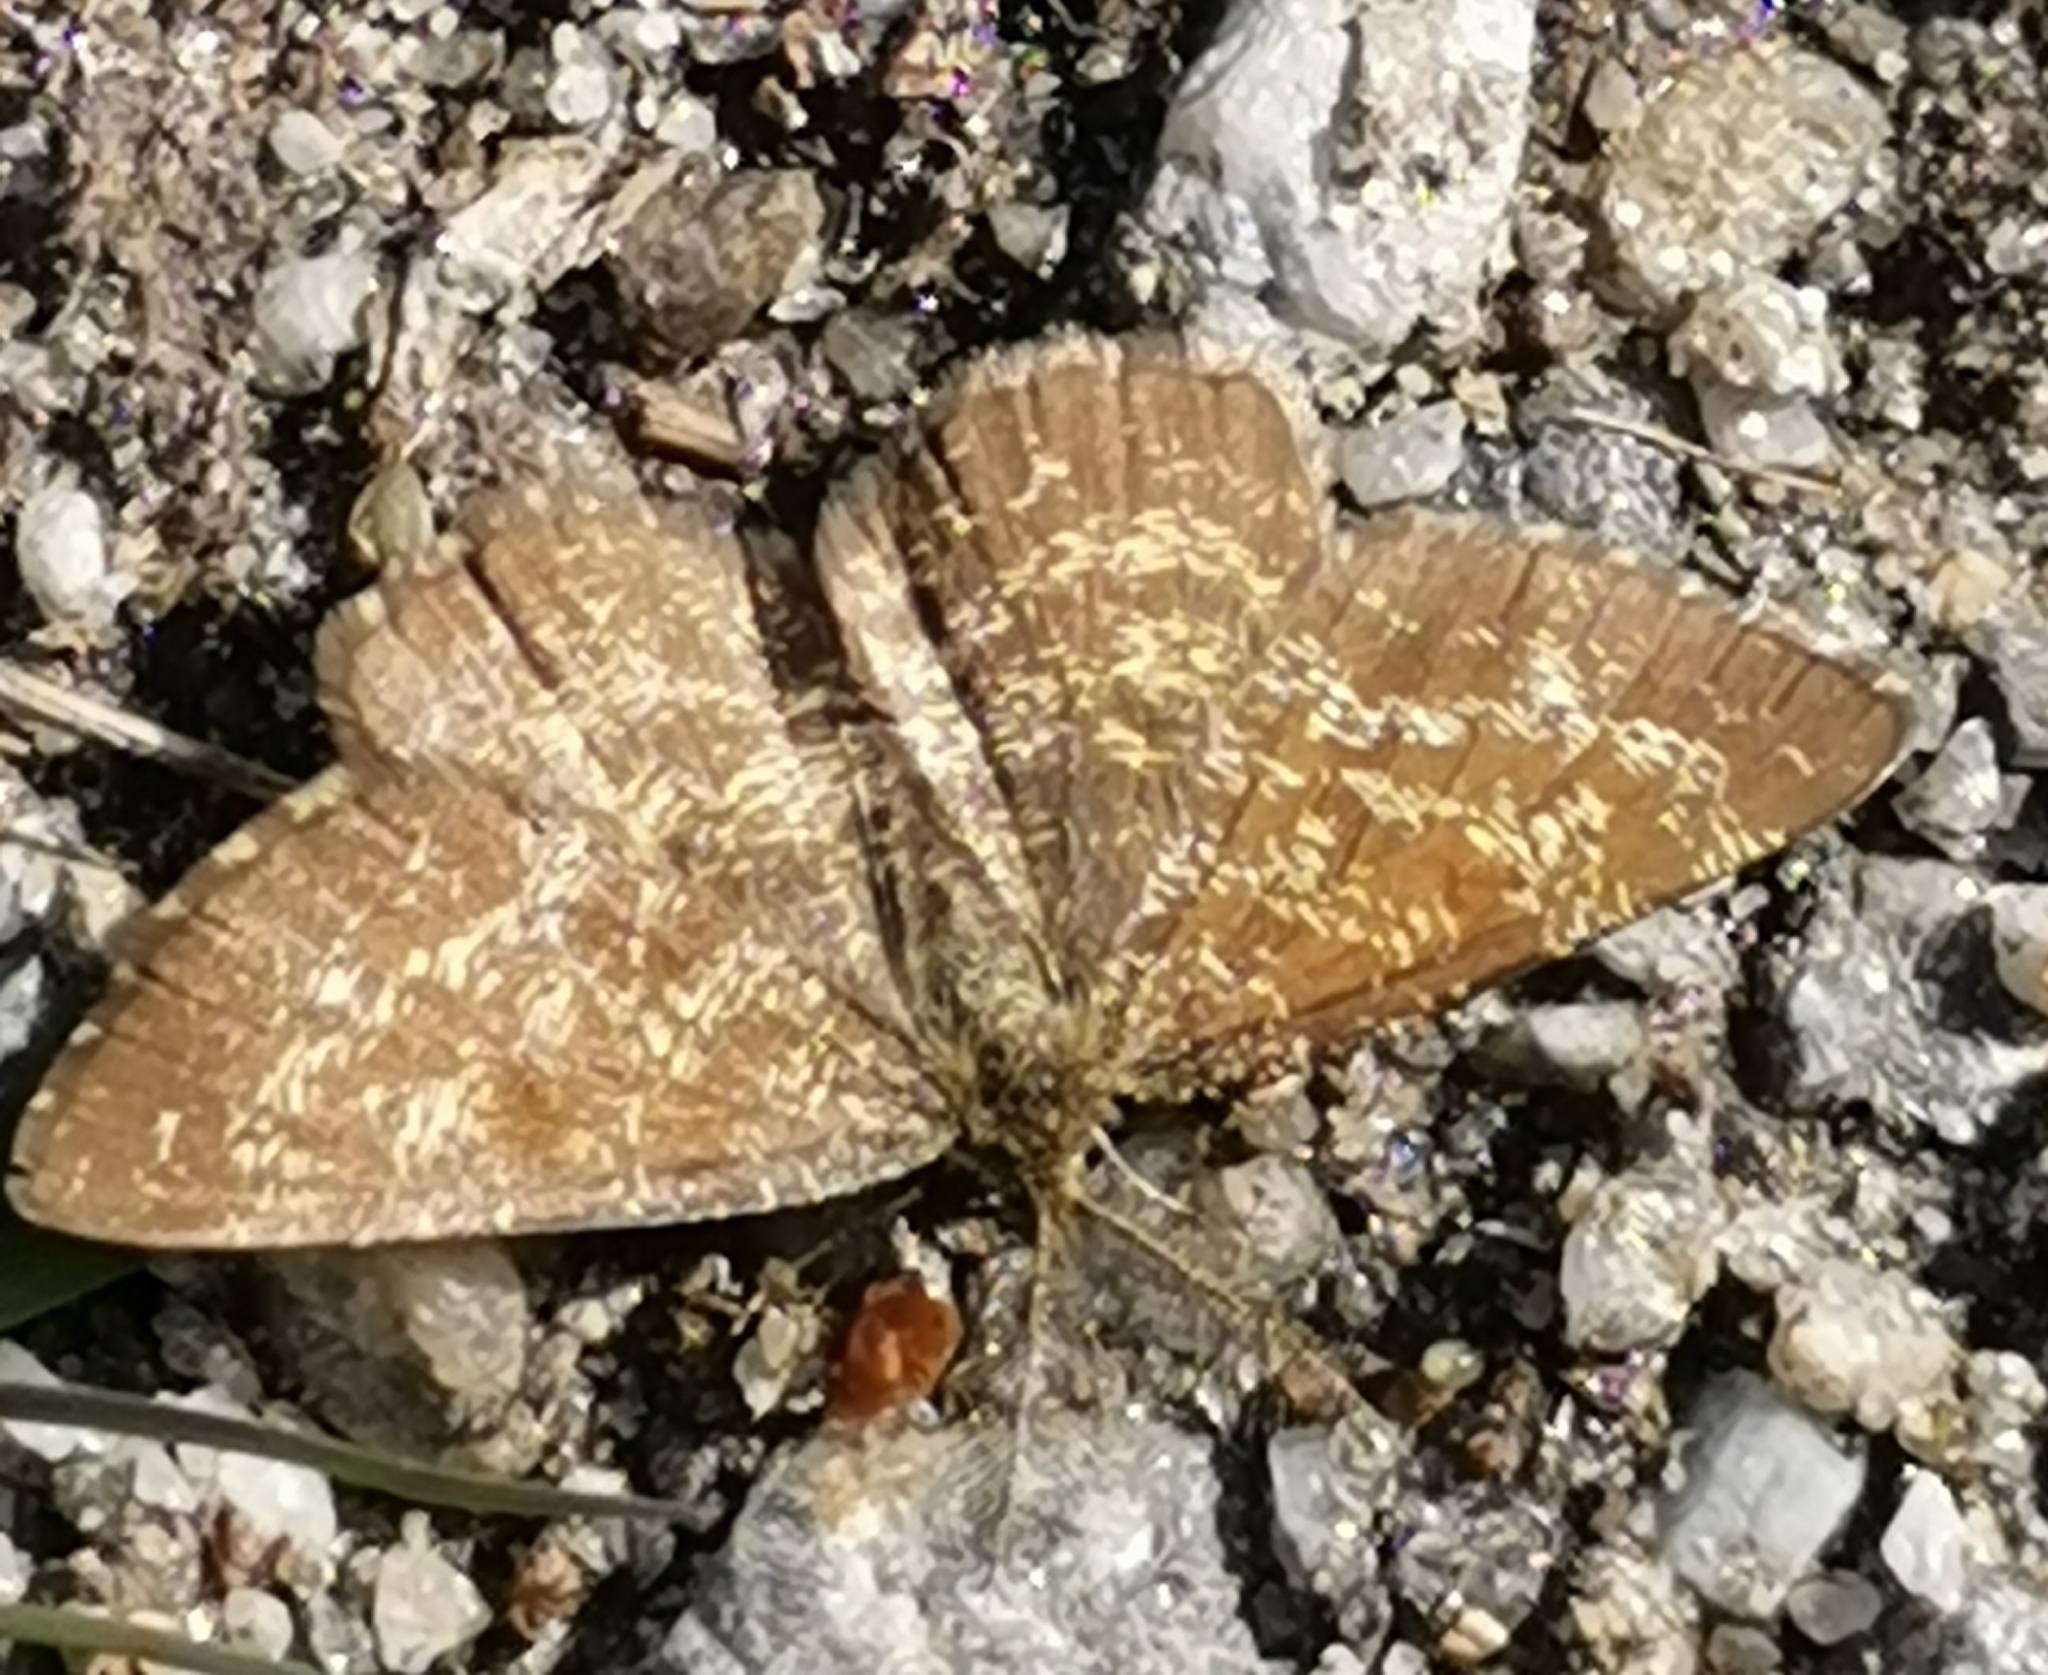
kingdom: Animalia
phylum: Arthropoda
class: Insecta
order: Lepidoptera
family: Geometridae
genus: Ematurga
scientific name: Ematurga atomaria
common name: Common heath
